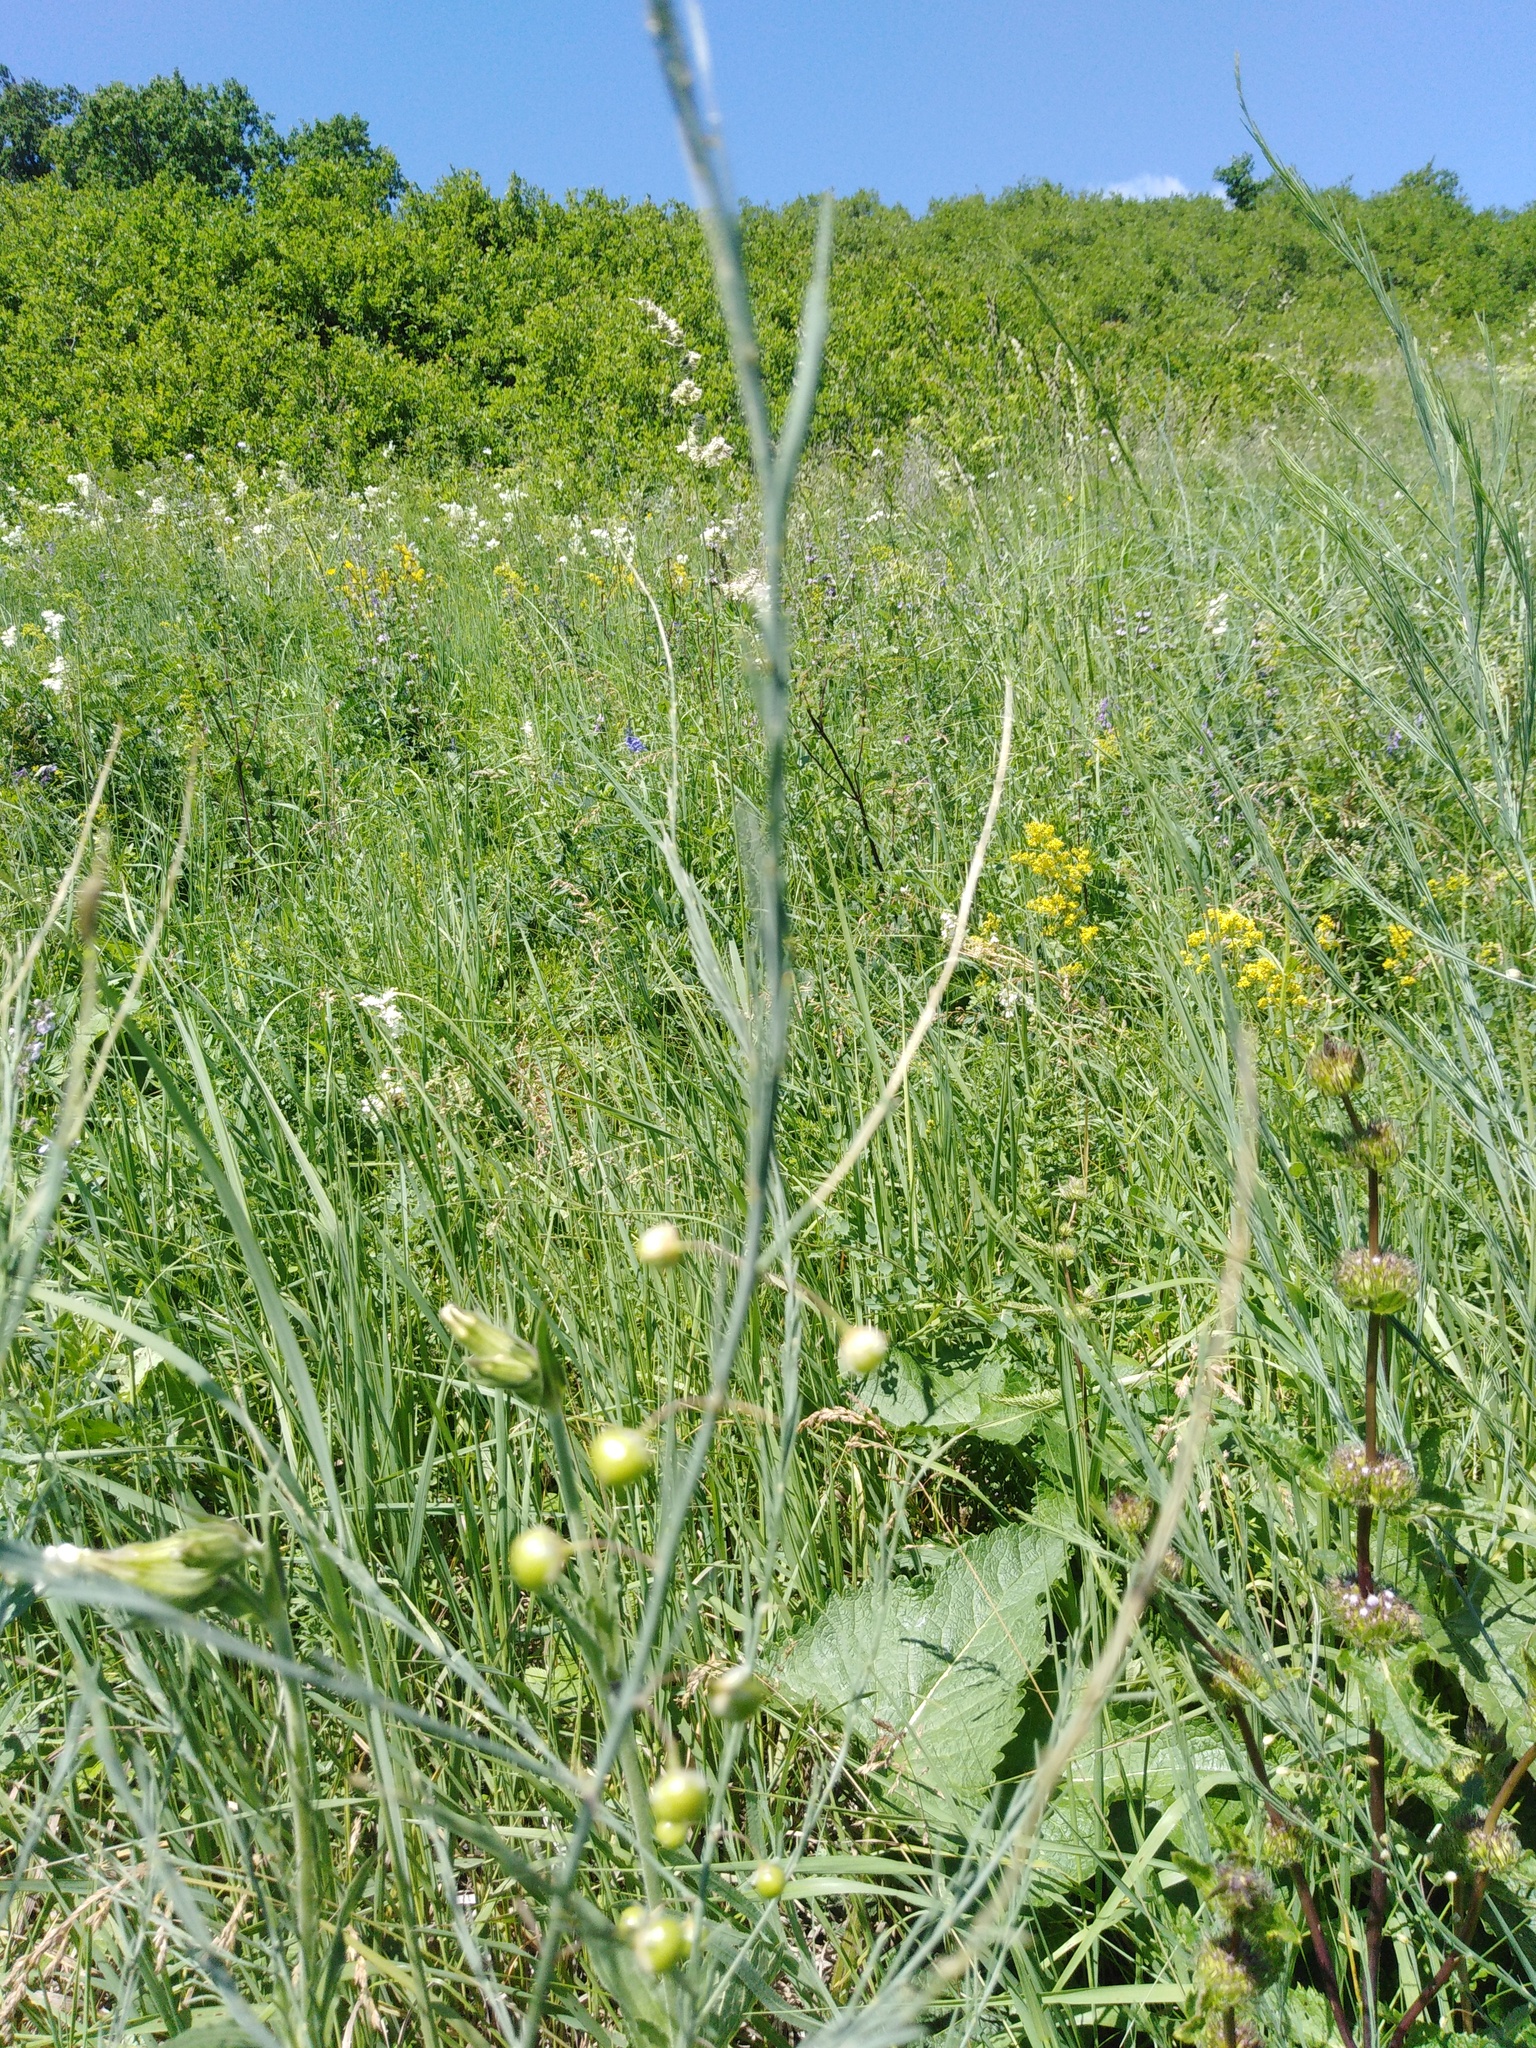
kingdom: Plantae
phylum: Tracheophyta
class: Liliopsida
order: Asparagales
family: Asparagaceae
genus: Asparagus
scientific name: Asparagus officinalis
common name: Garden asparagus
